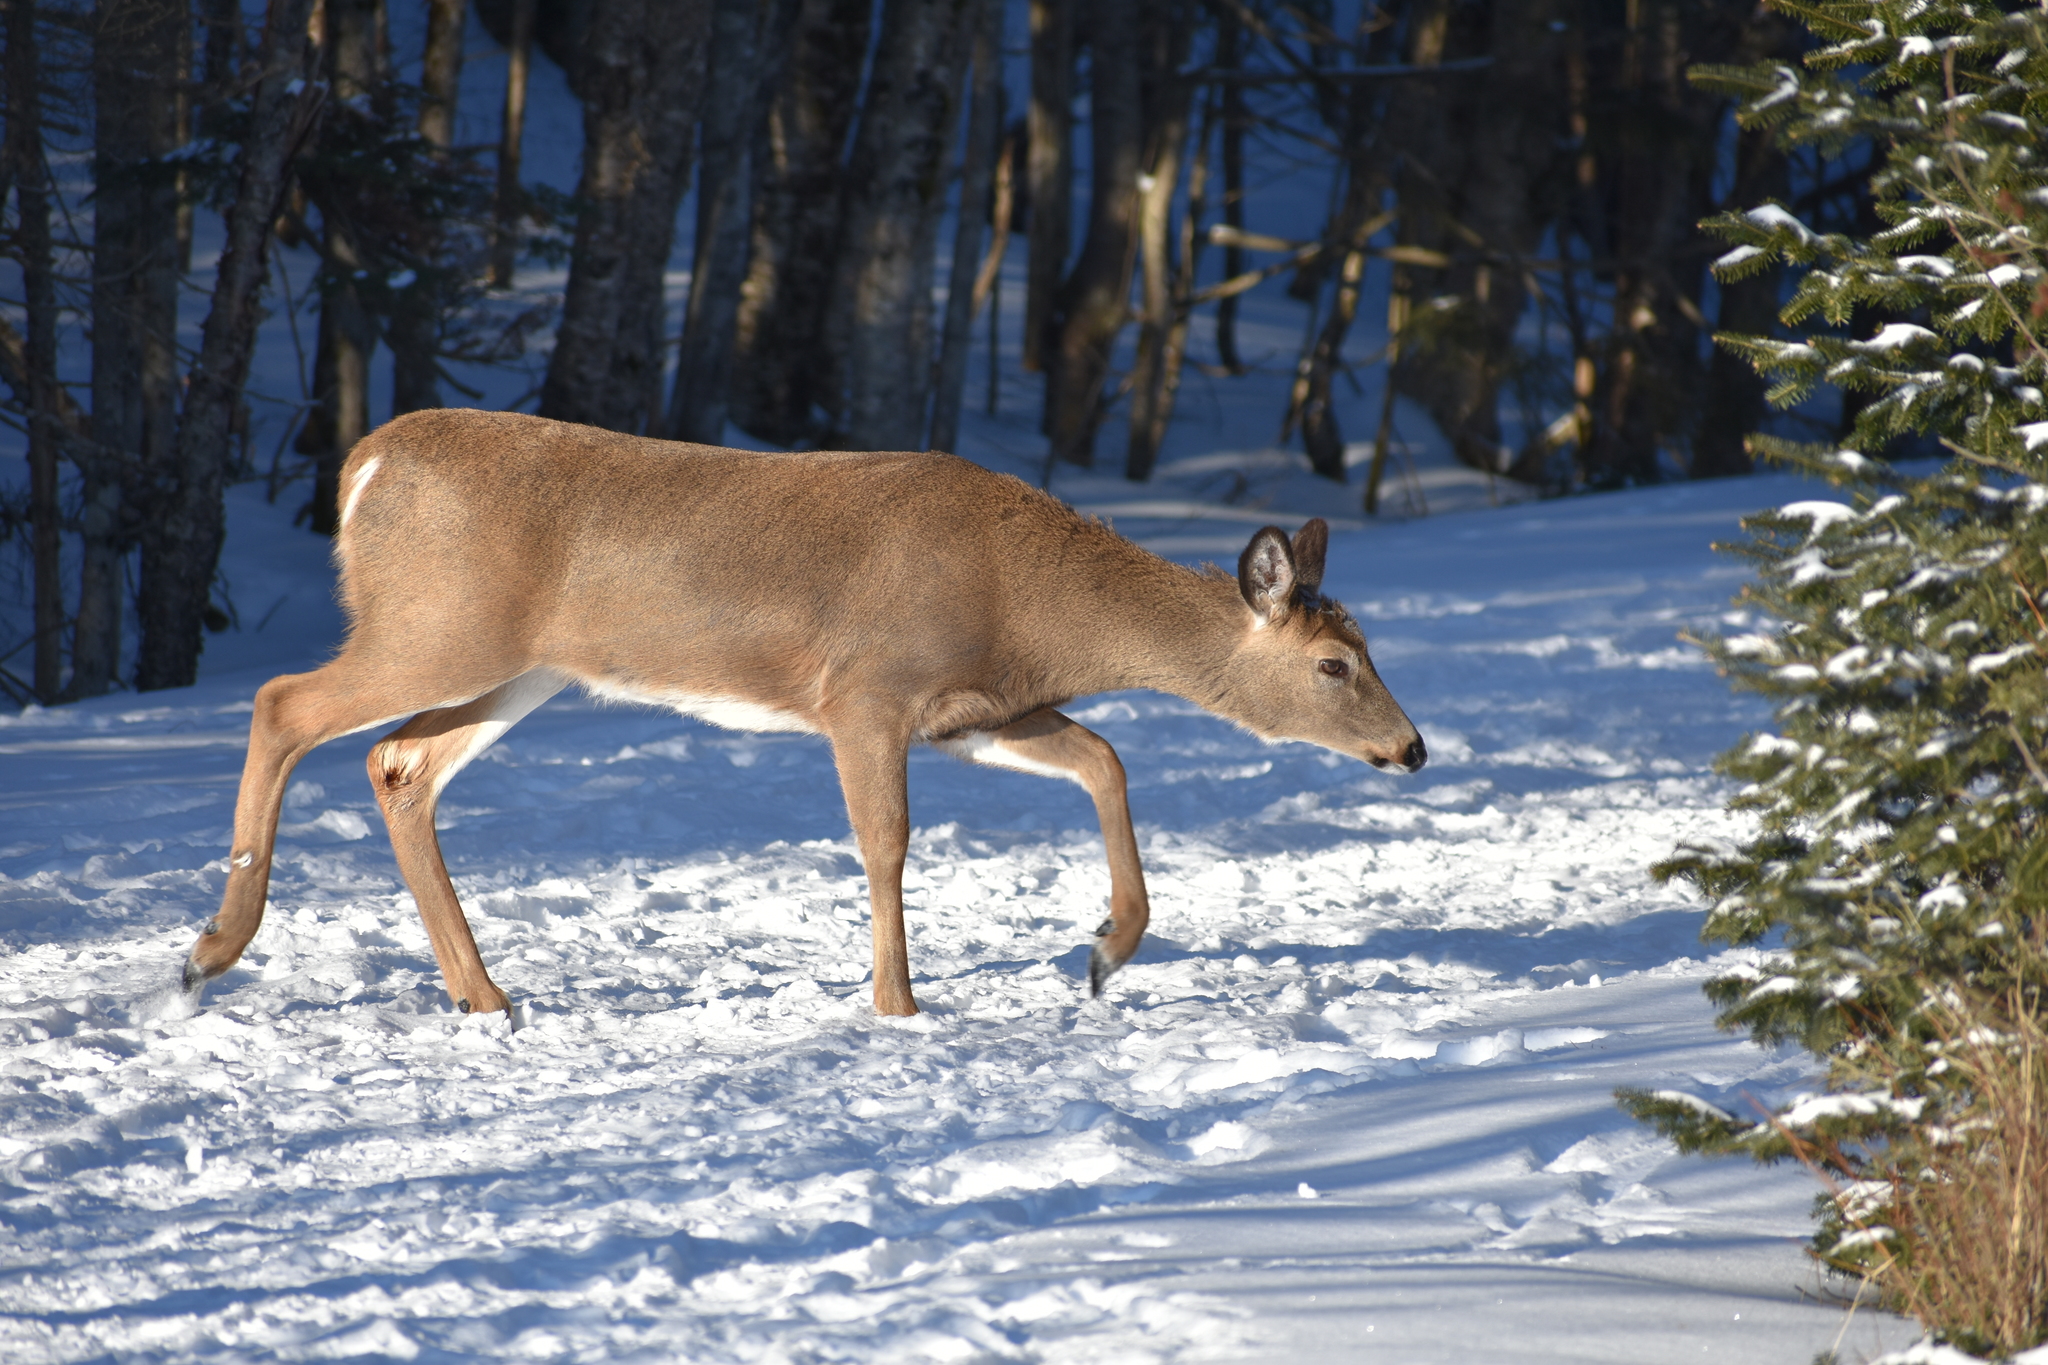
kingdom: Animalia
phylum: Chordata
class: Mammalia
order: Artiodactyla
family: Cervidae
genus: Odocoileus
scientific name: Odocoileus virginianus
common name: White-tailed deer
